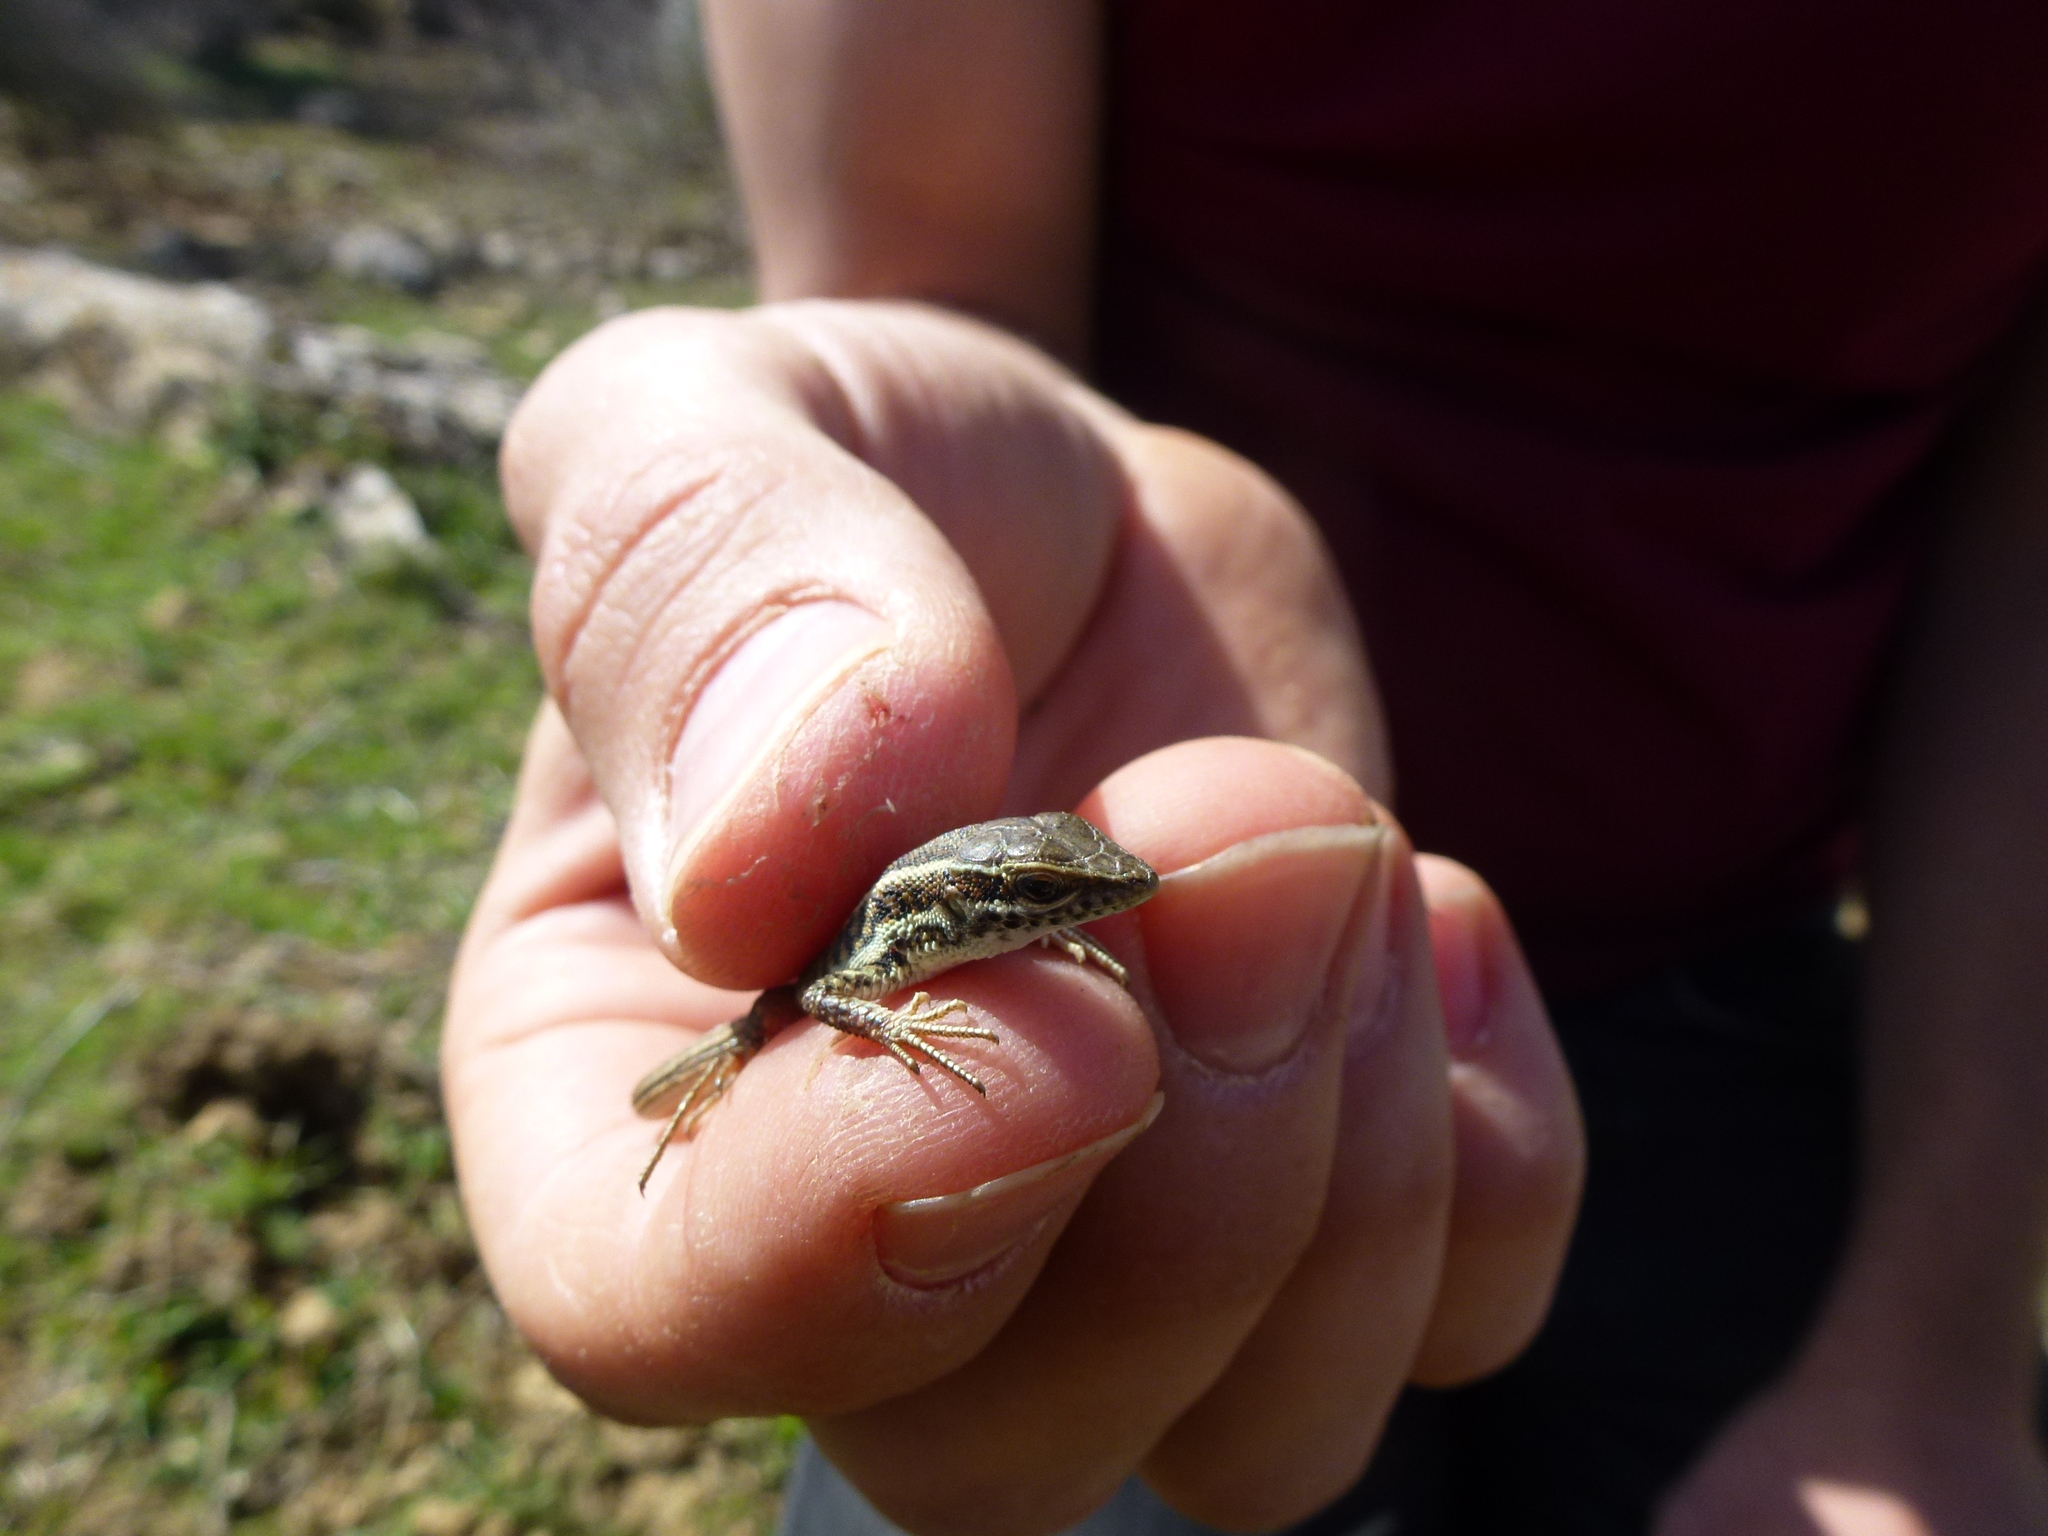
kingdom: Animalia
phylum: Chordata
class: Squamata
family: Lacertidae
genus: Ophisops
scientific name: Ophisops elegans
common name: Snake-eyed lizard
